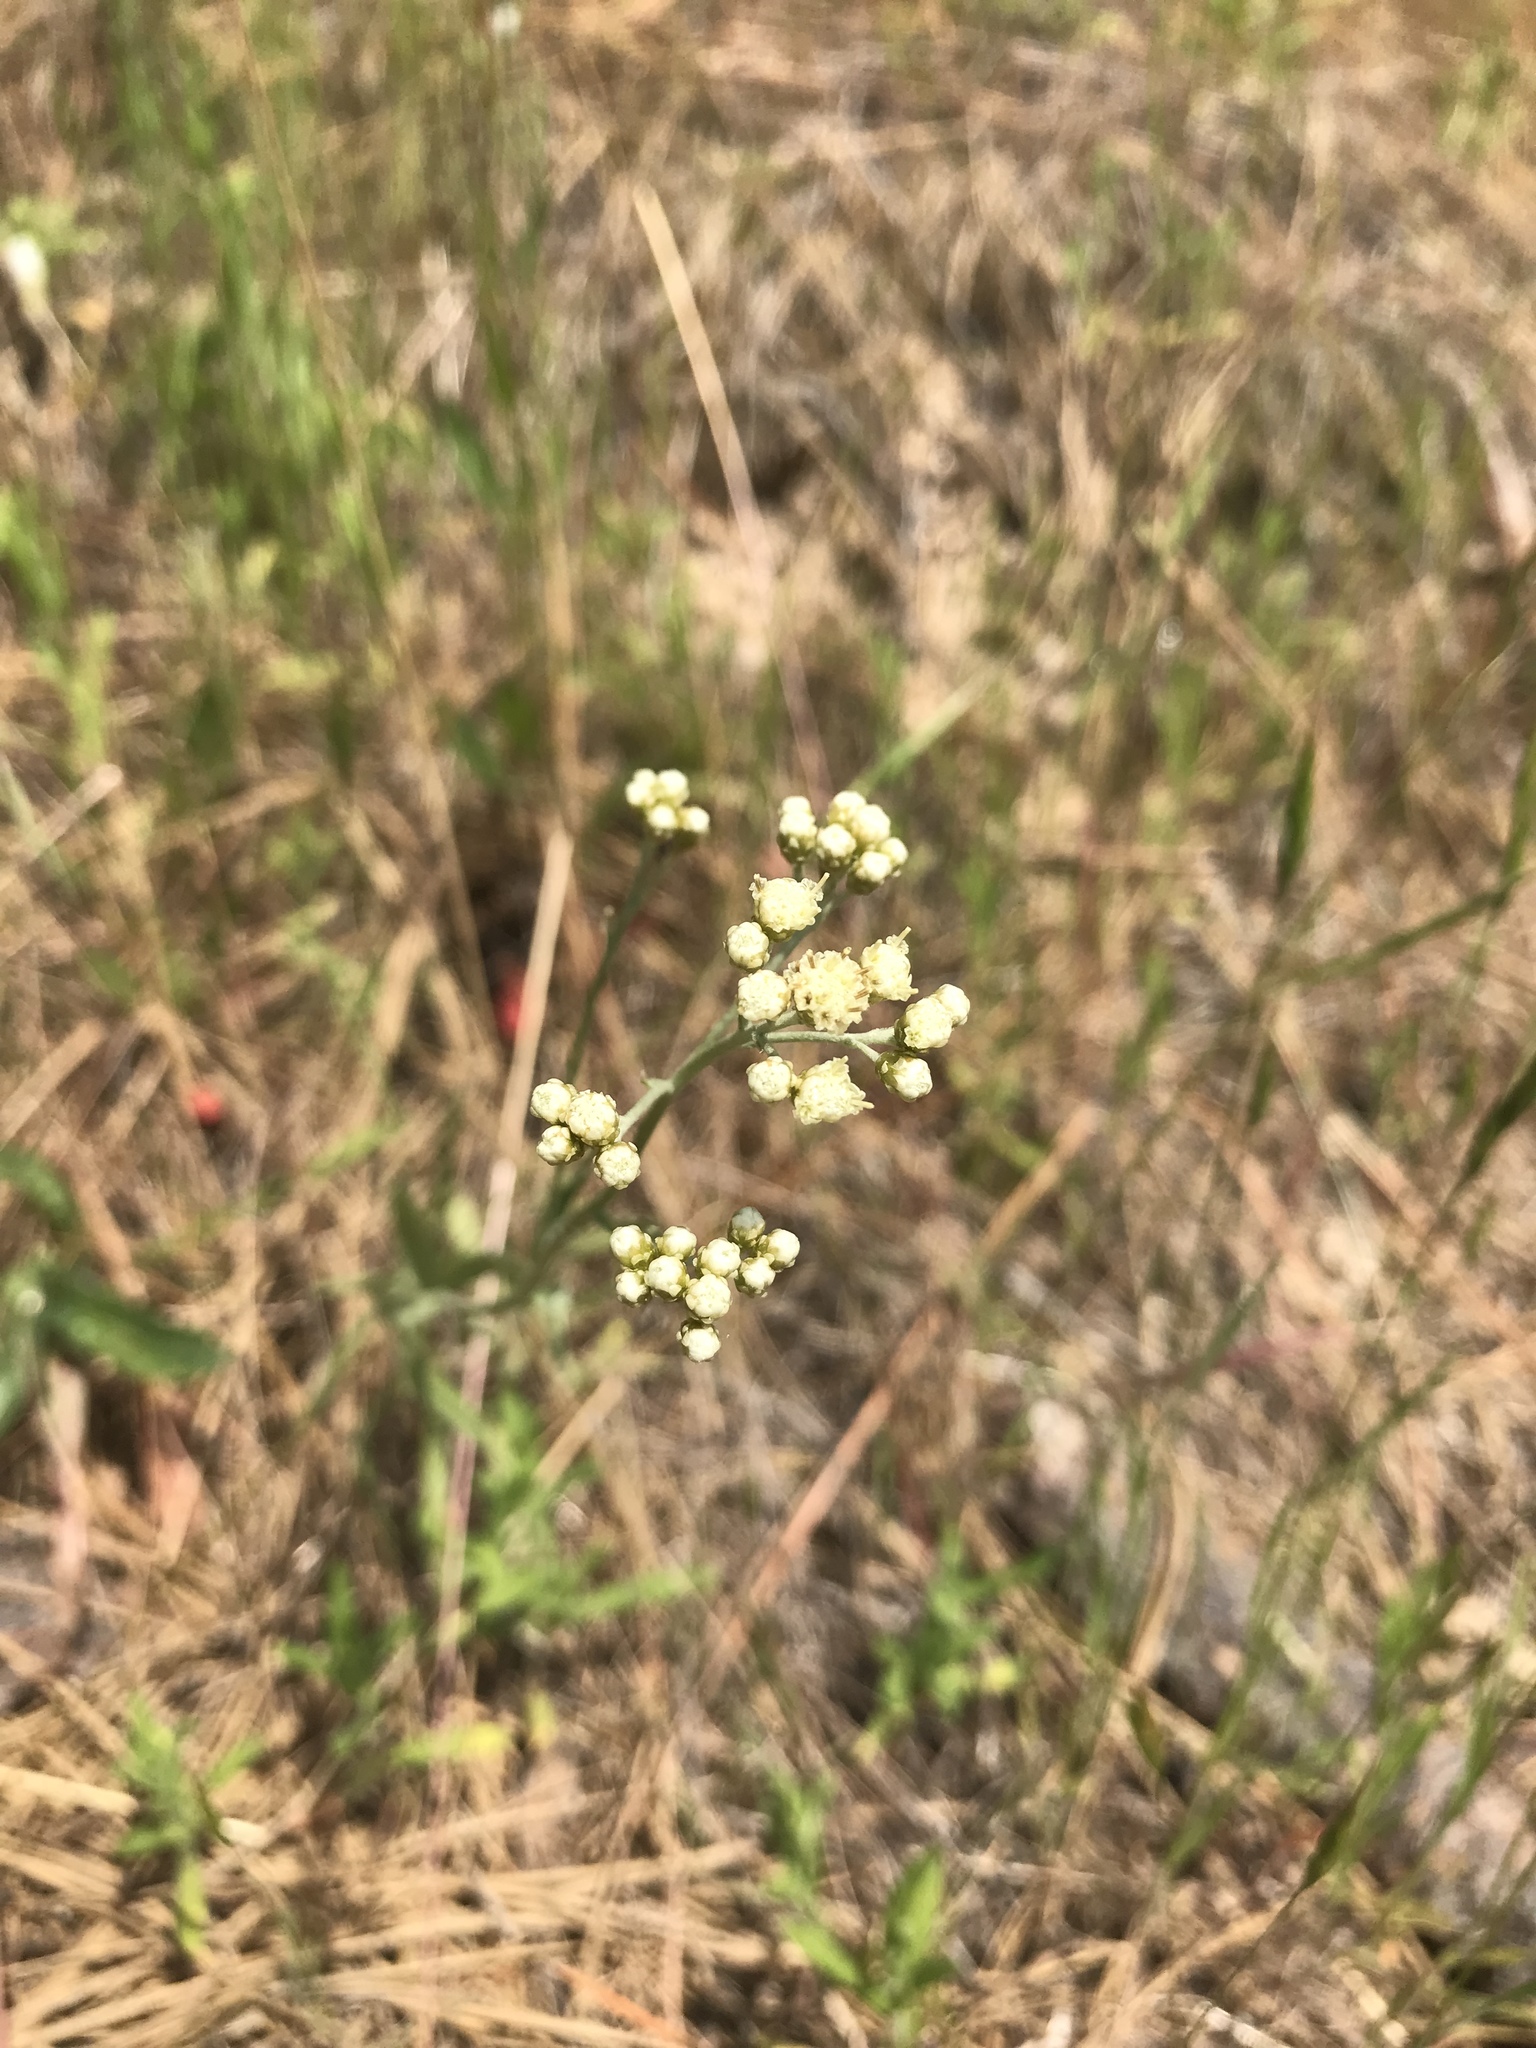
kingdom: Plantae
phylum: Tracheophyta
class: Magnoliopsida
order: Asterales
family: Asteraceae
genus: Antennaria
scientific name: Antennaria luzuloides
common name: Rush pussytoes
